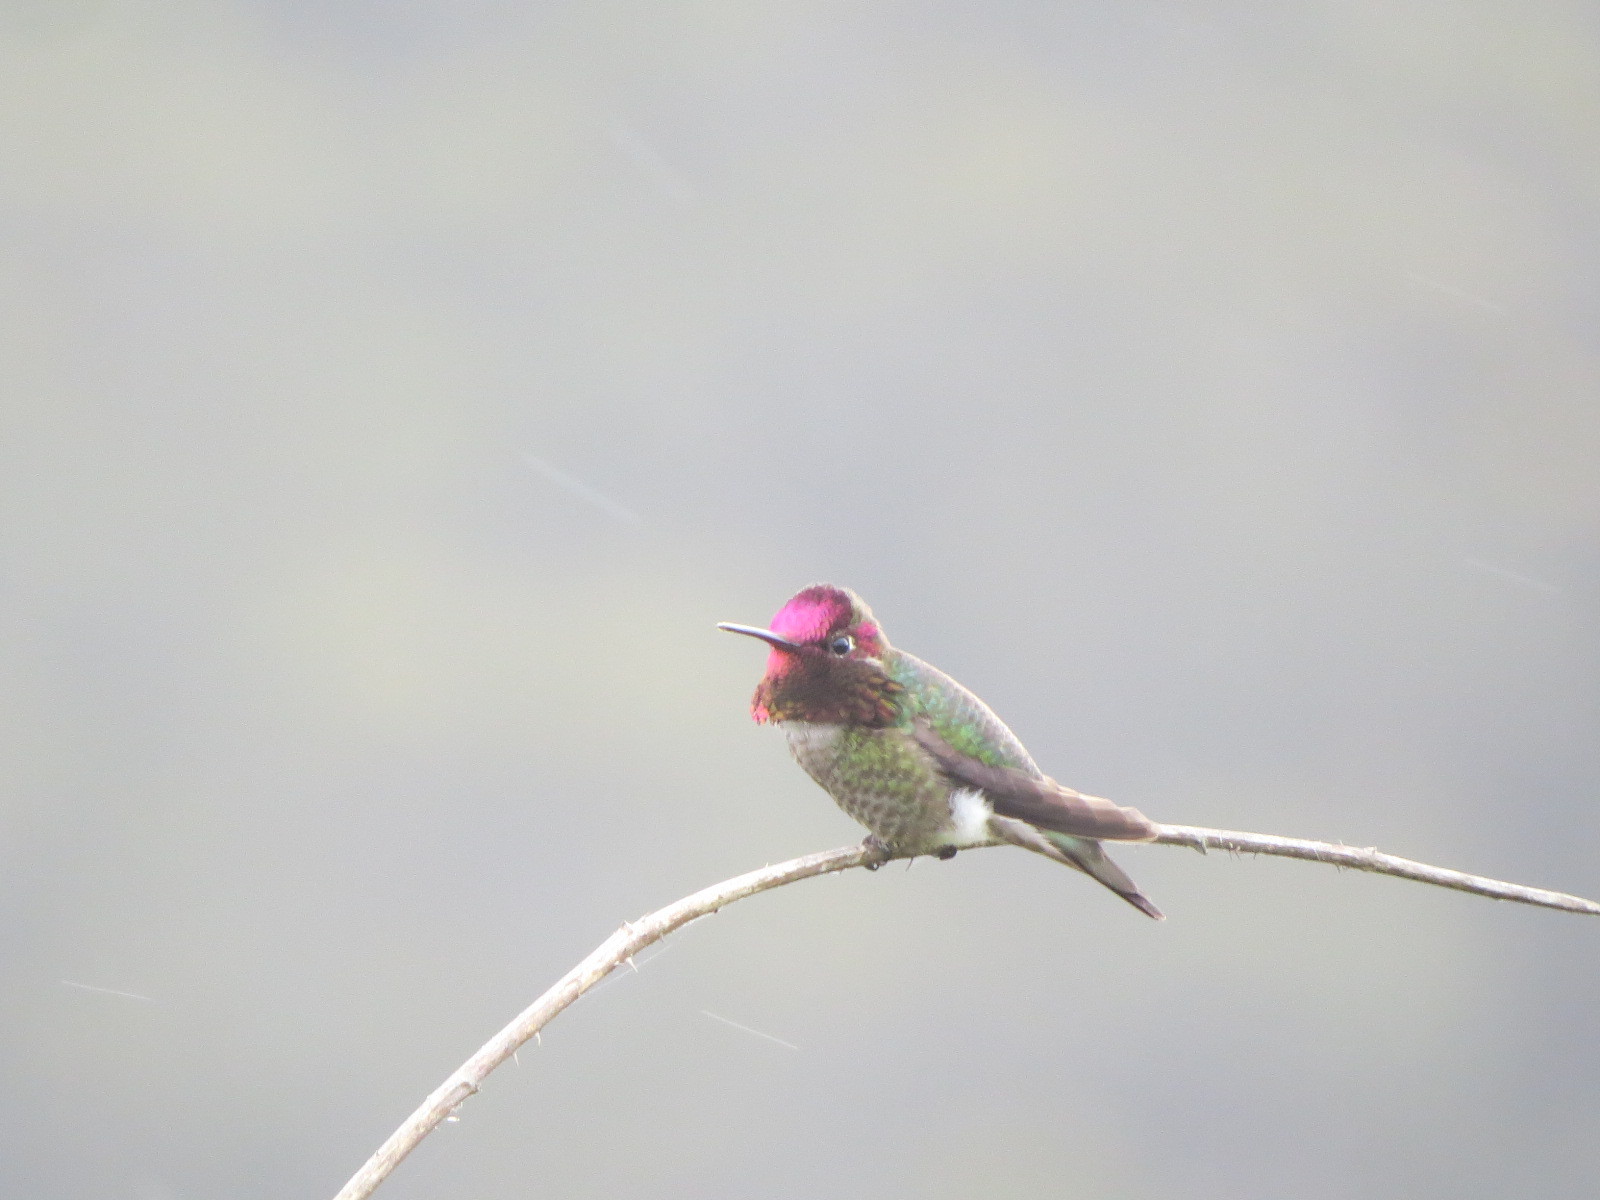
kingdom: Animalia
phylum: Chordata
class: Aves
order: Apodiformes
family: Trochilidae
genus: Calypte
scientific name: Calypte anna
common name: Anna's hummingbird
